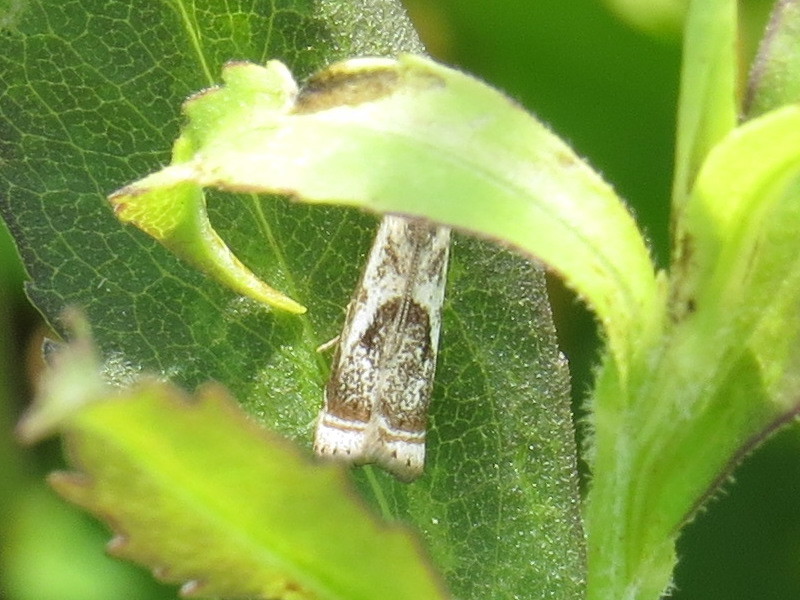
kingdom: Animalia
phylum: Arthropoda
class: Insecta
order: Lepidoptera
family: Crambidae
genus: Microcrambus
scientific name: Microcrambus elegans
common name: Elegant grass-veneer
